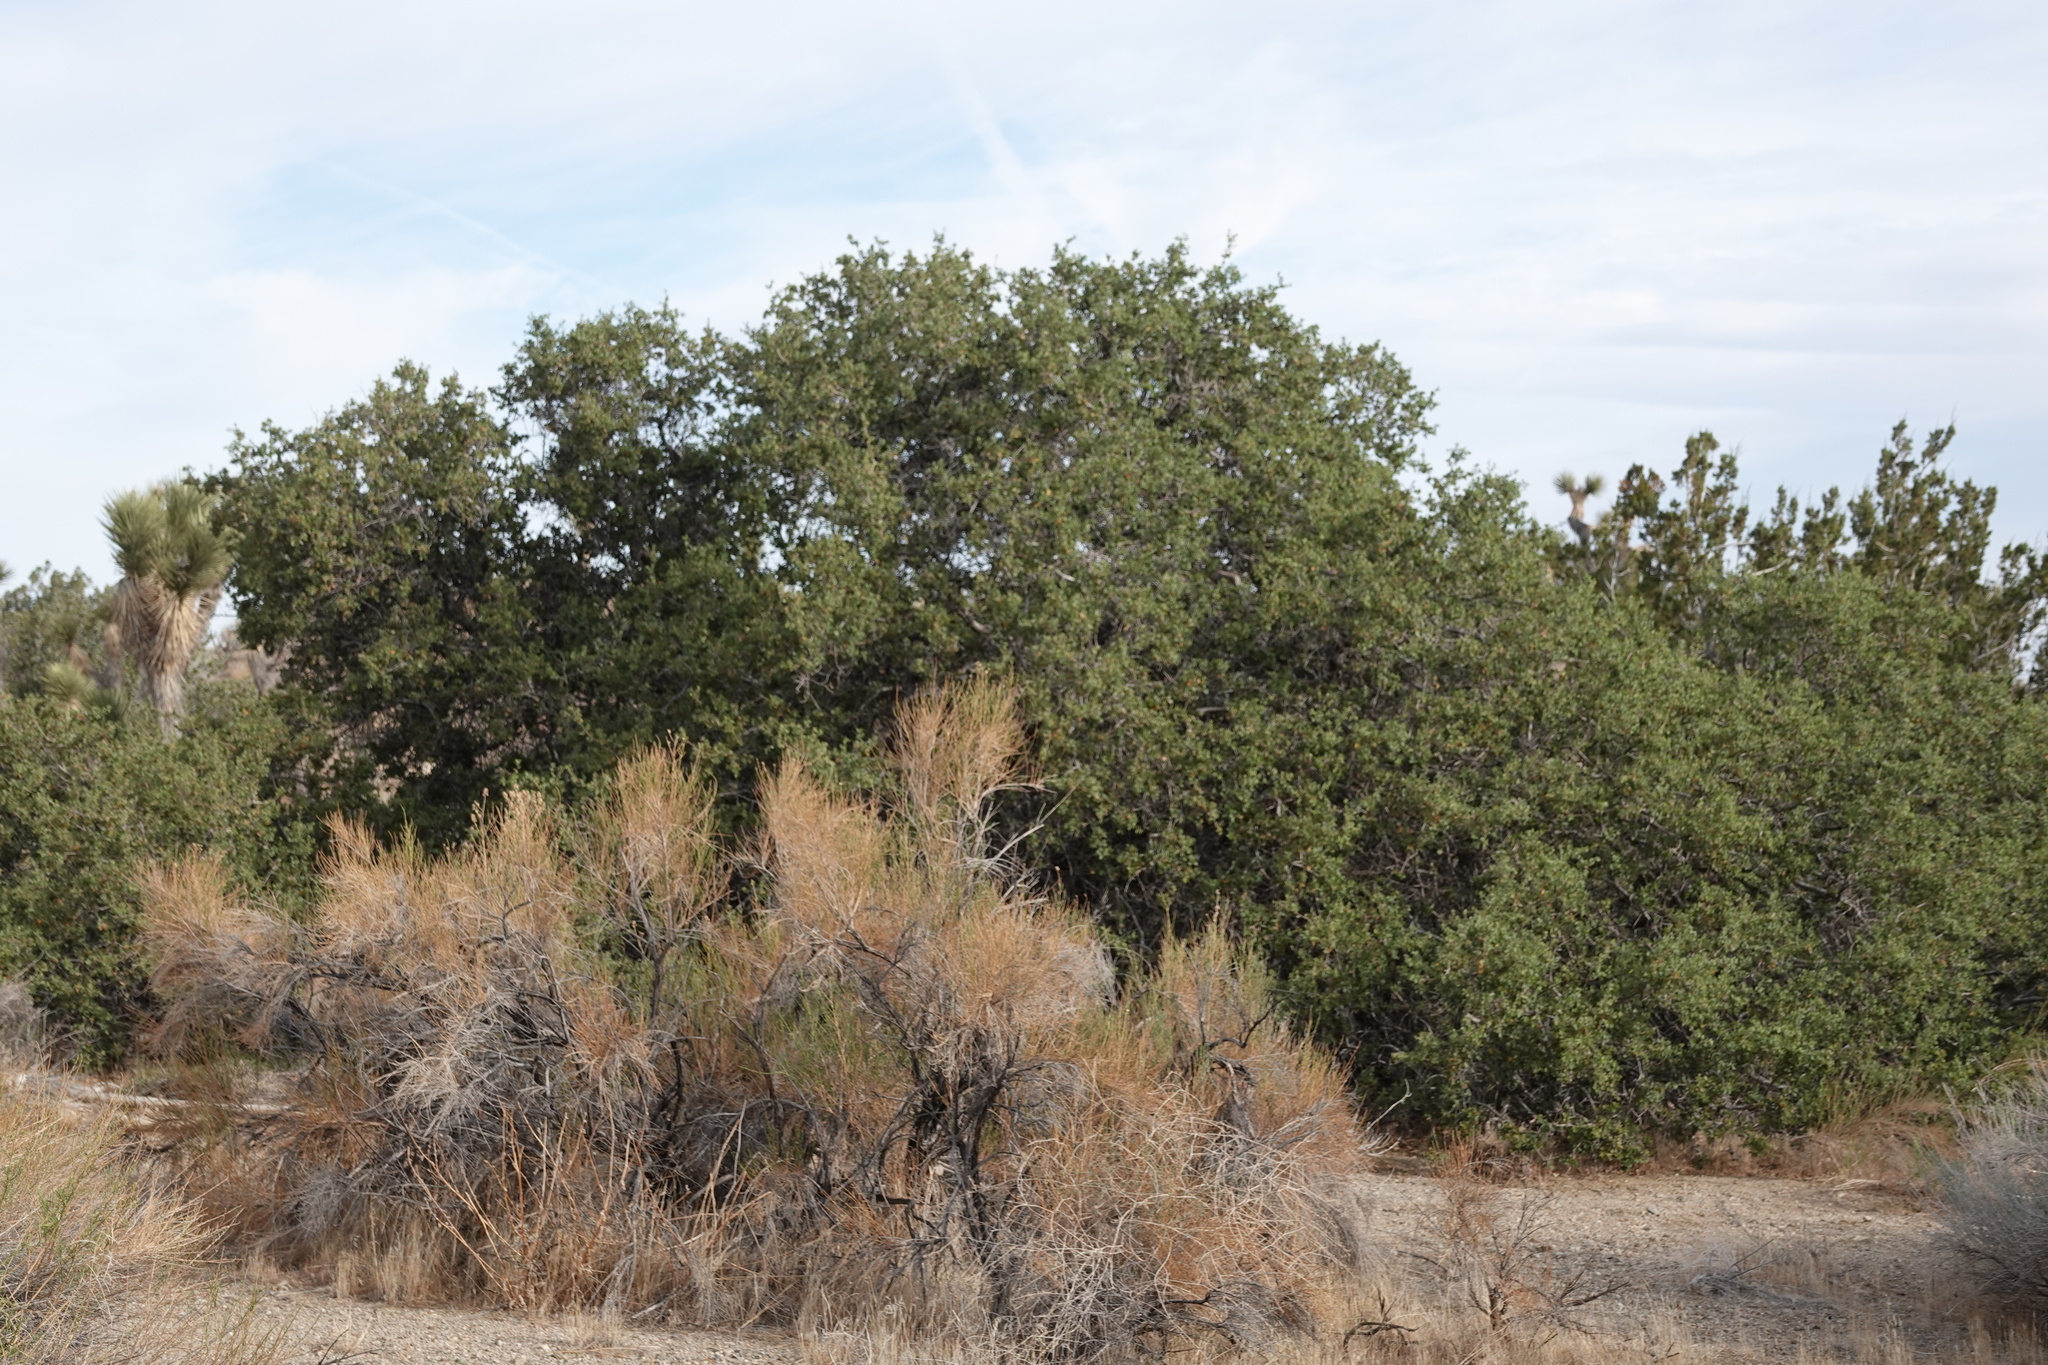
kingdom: Plantae
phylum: Tracheophyta
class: Magnoliopsida
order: Fagales
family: Fagaceae
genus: Quercus
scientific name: Quercus john-tuckeri
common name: Tucker's oak
